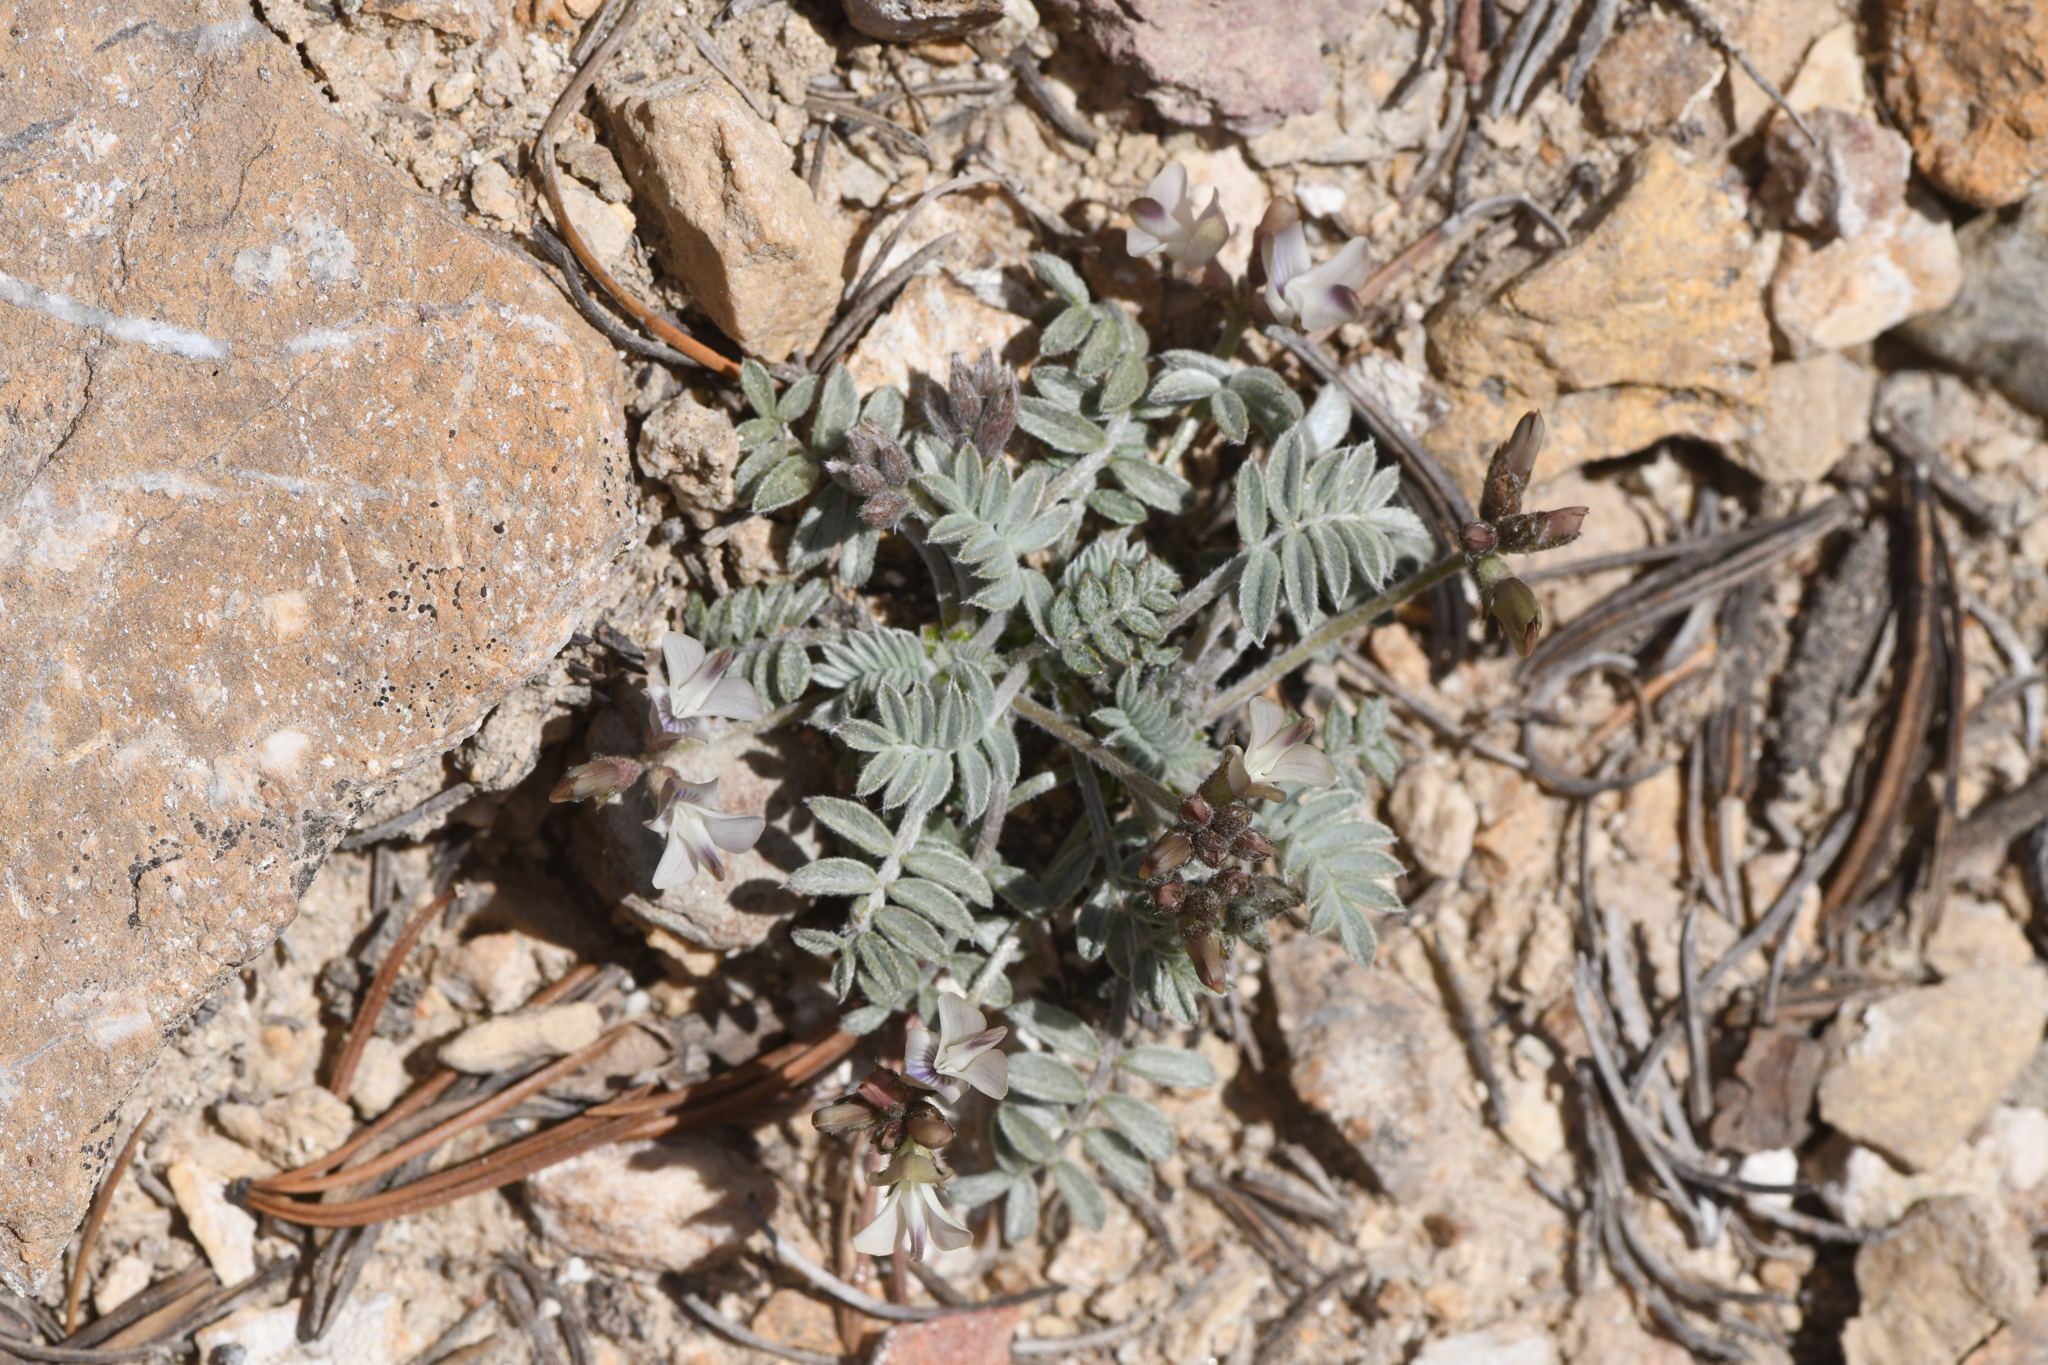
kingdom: Plantae
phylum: Tracheophyta
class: Magnoliopsida
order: Fabales
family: Fabaceae
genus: Astragalus
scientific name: Astragalus platytropis
